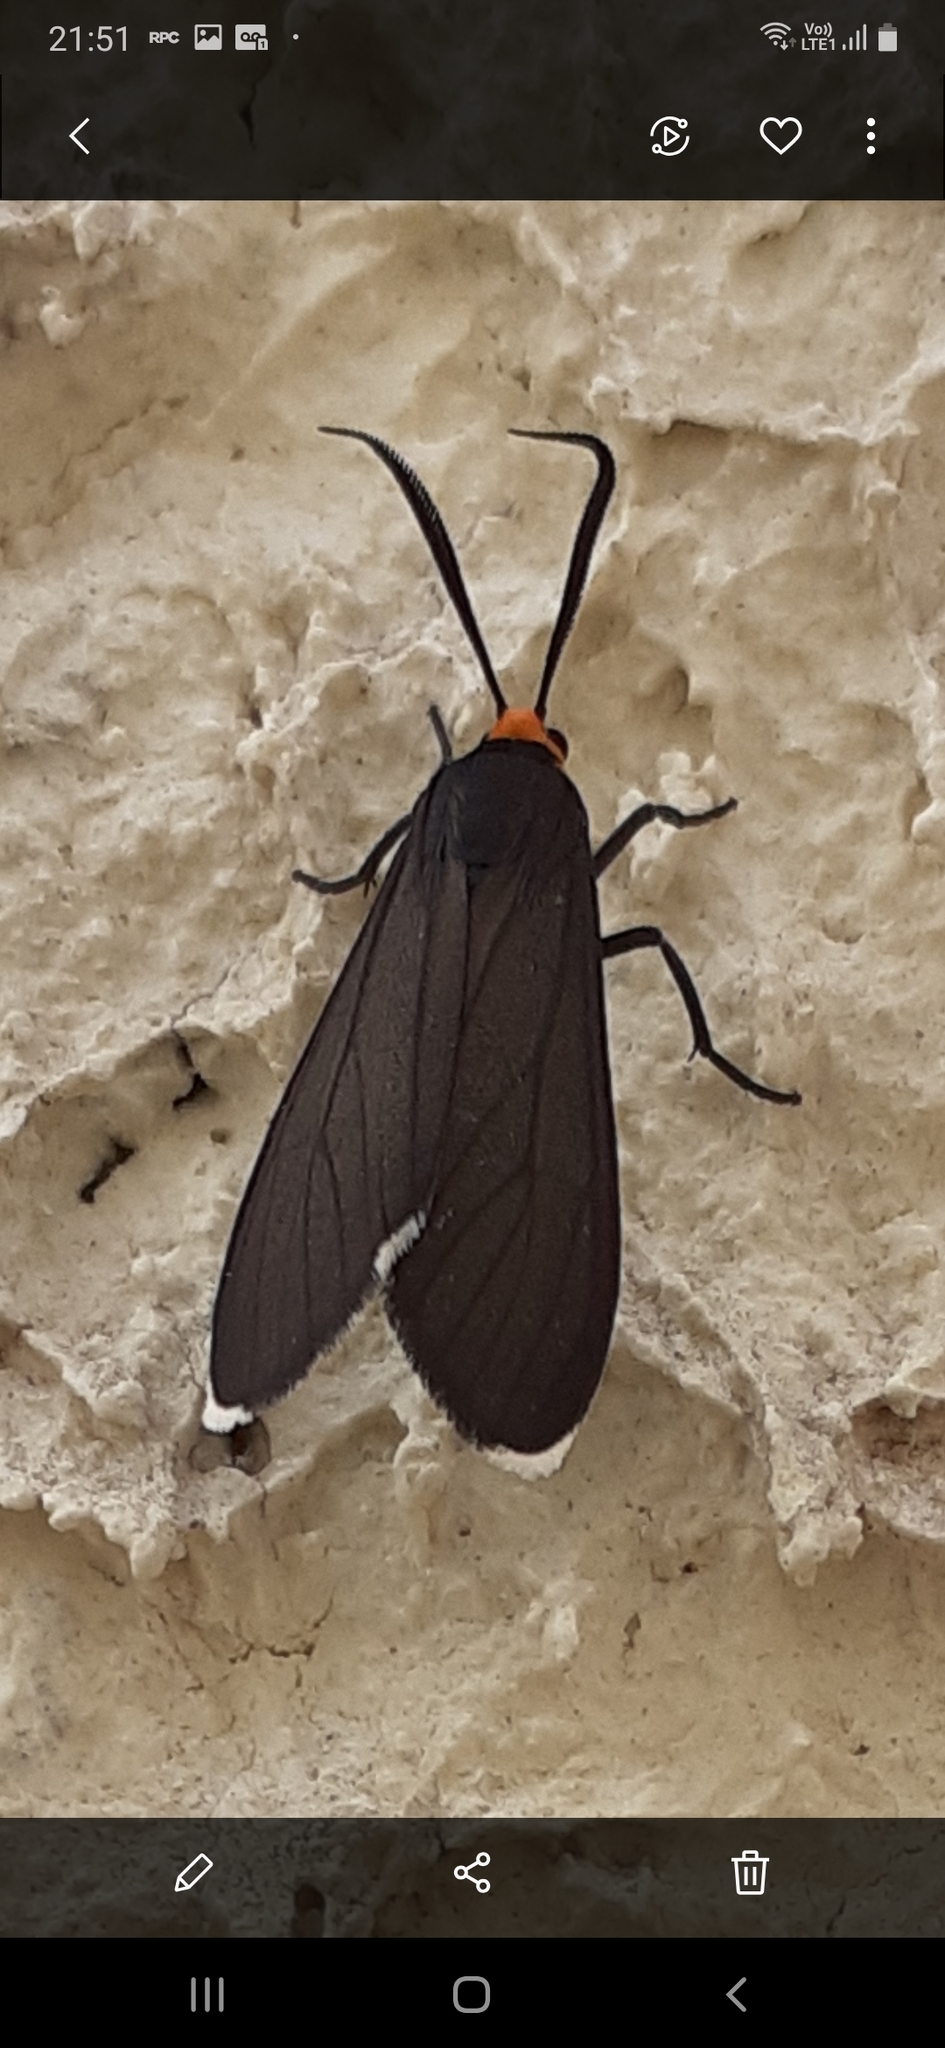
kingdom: Animalia
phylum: Arthropoda
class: Insecta
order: Lepidoptera
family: Erebidae
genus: Ctenucha
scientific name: Ctenucha rubriceps
